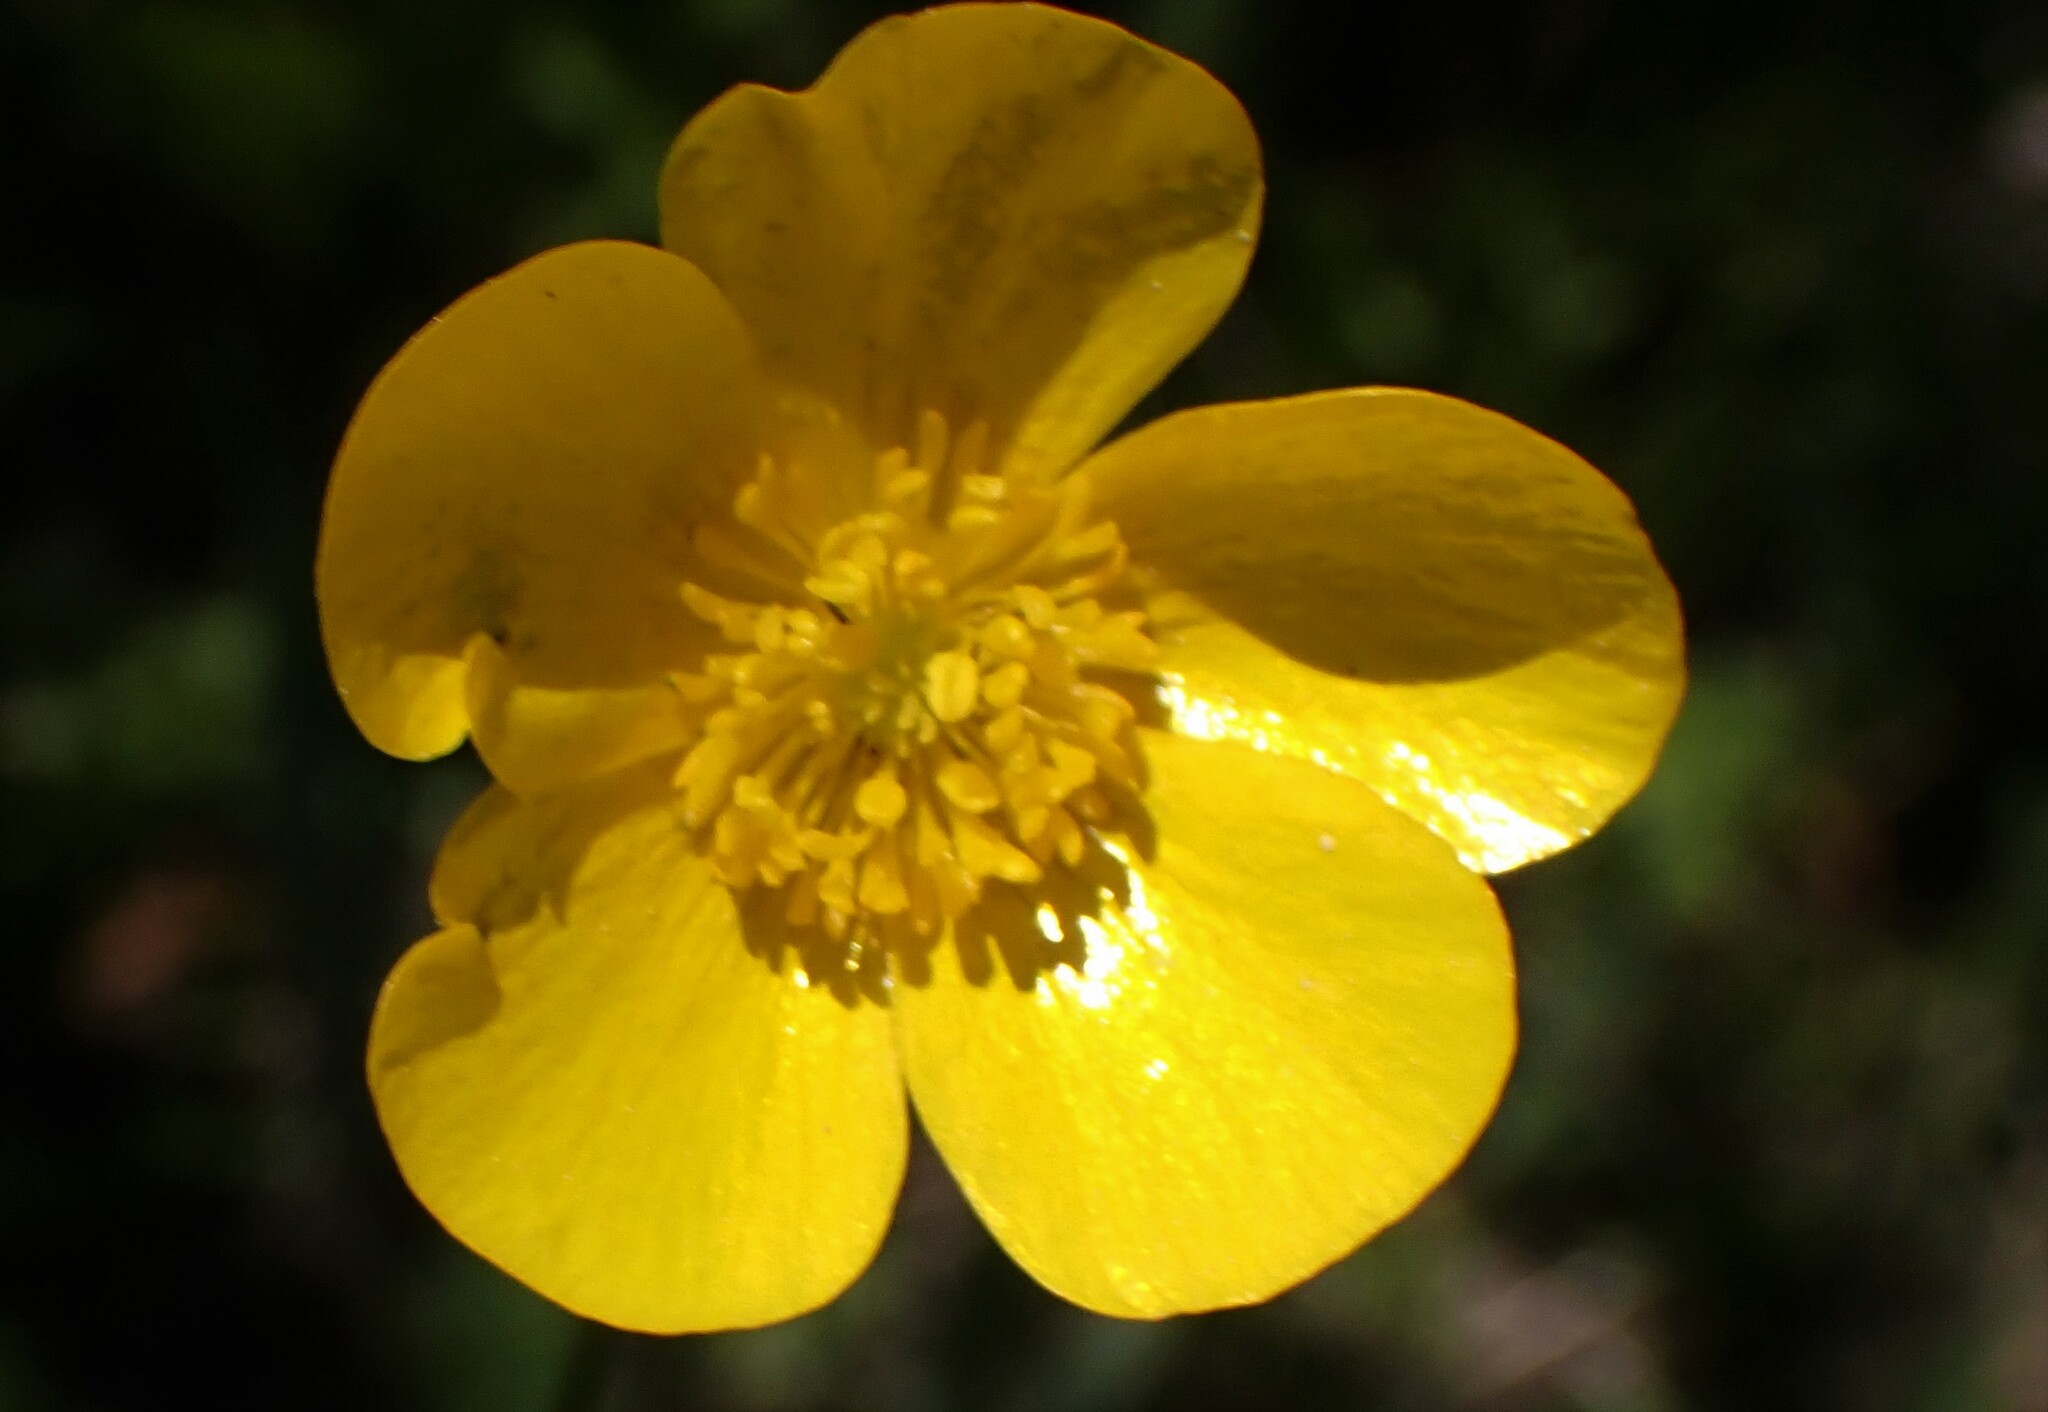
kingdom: Plantae
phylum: Tracheophyta
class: Magnoliopsida
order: Ranunculales
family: Ranunculaceae
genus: Ranunculus
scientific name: Ranunculus
